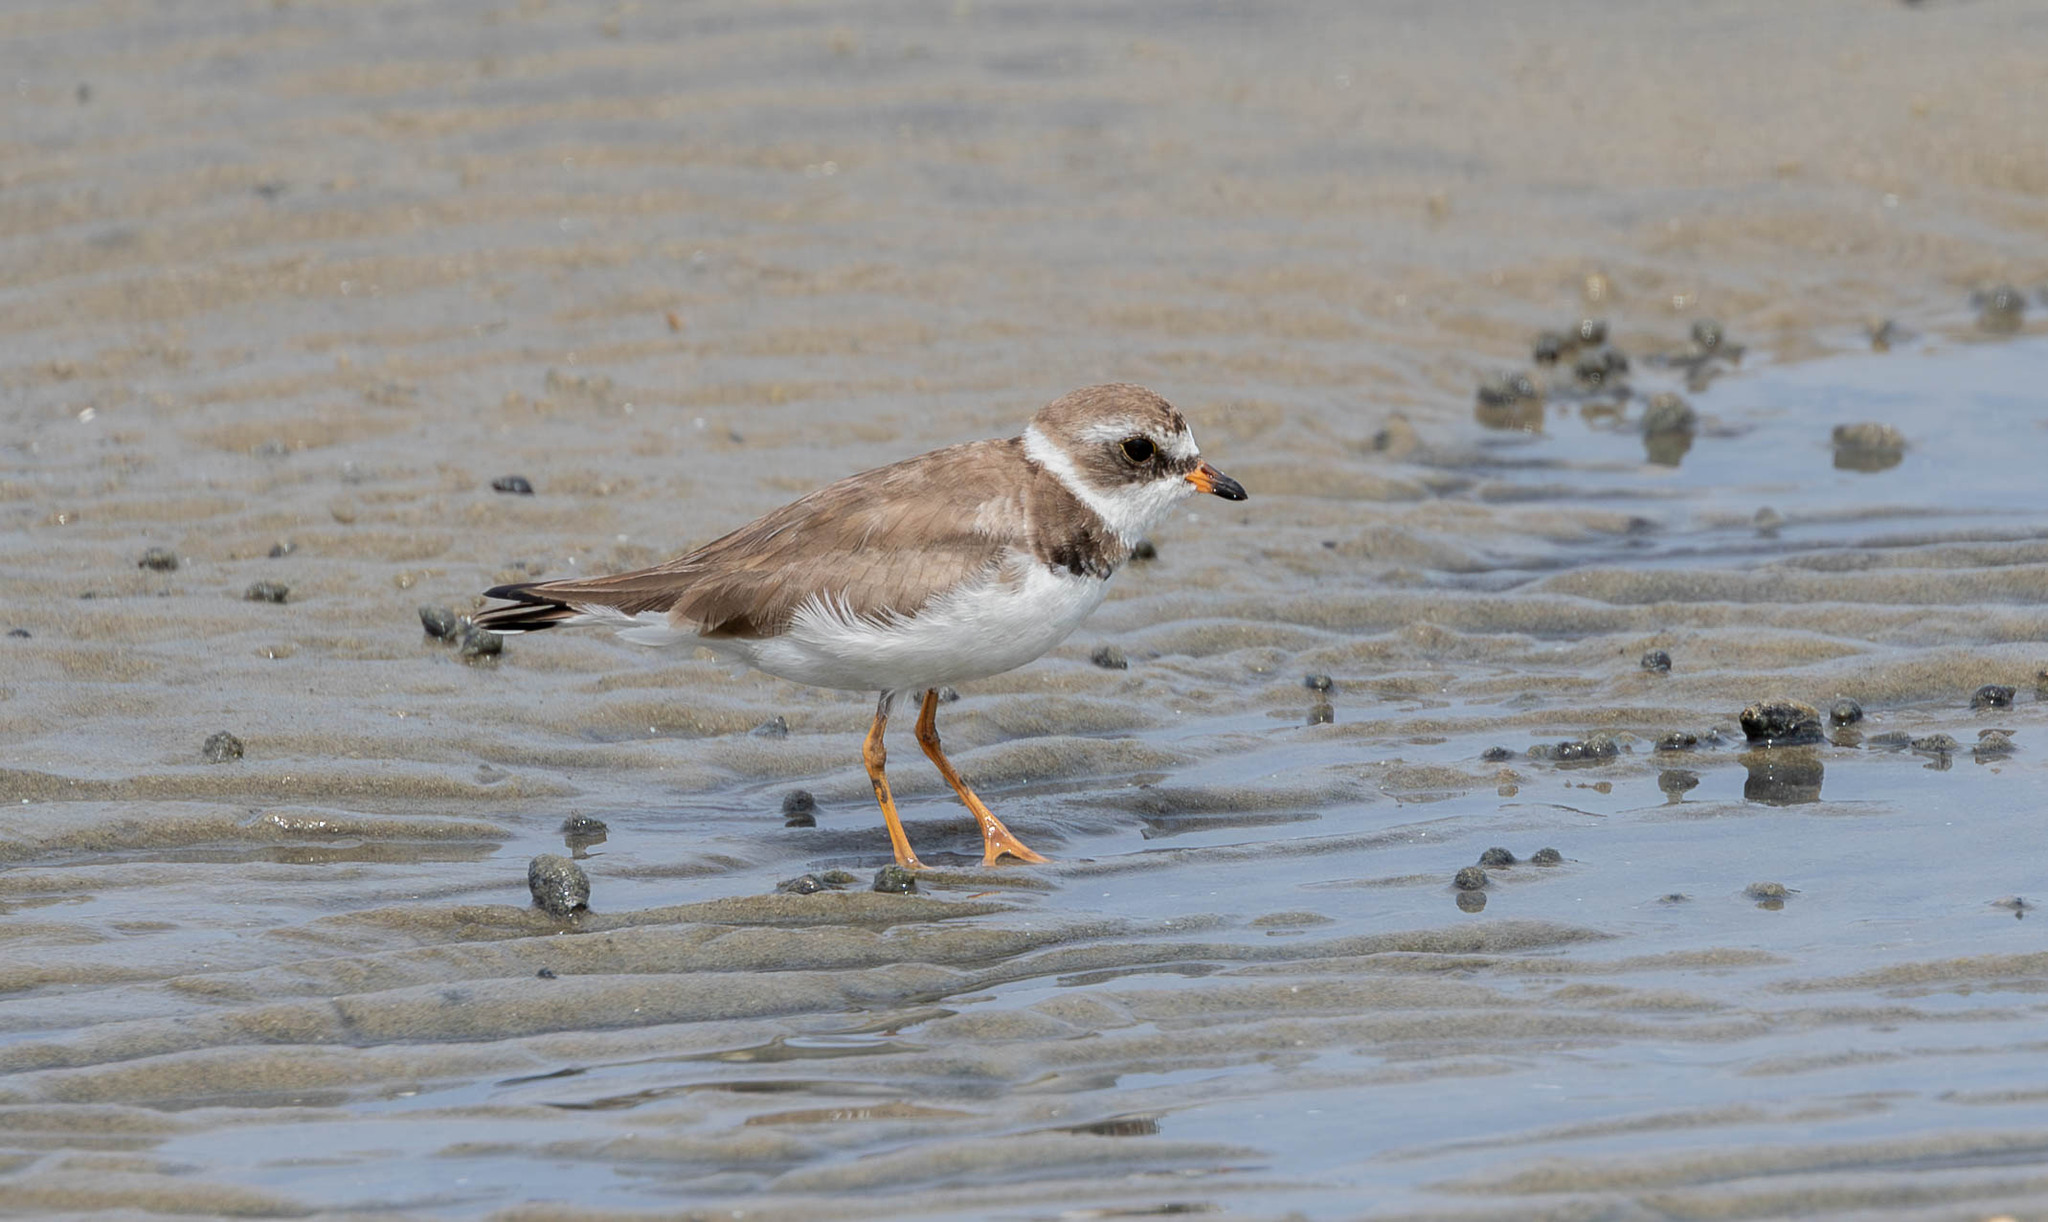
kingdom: Animalia
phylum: Chordata
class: Aves
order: Charadriiformes
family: Charadriidae
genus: Charadrius
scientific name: Charadrius semipalmatus
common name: Semipalmated plover
